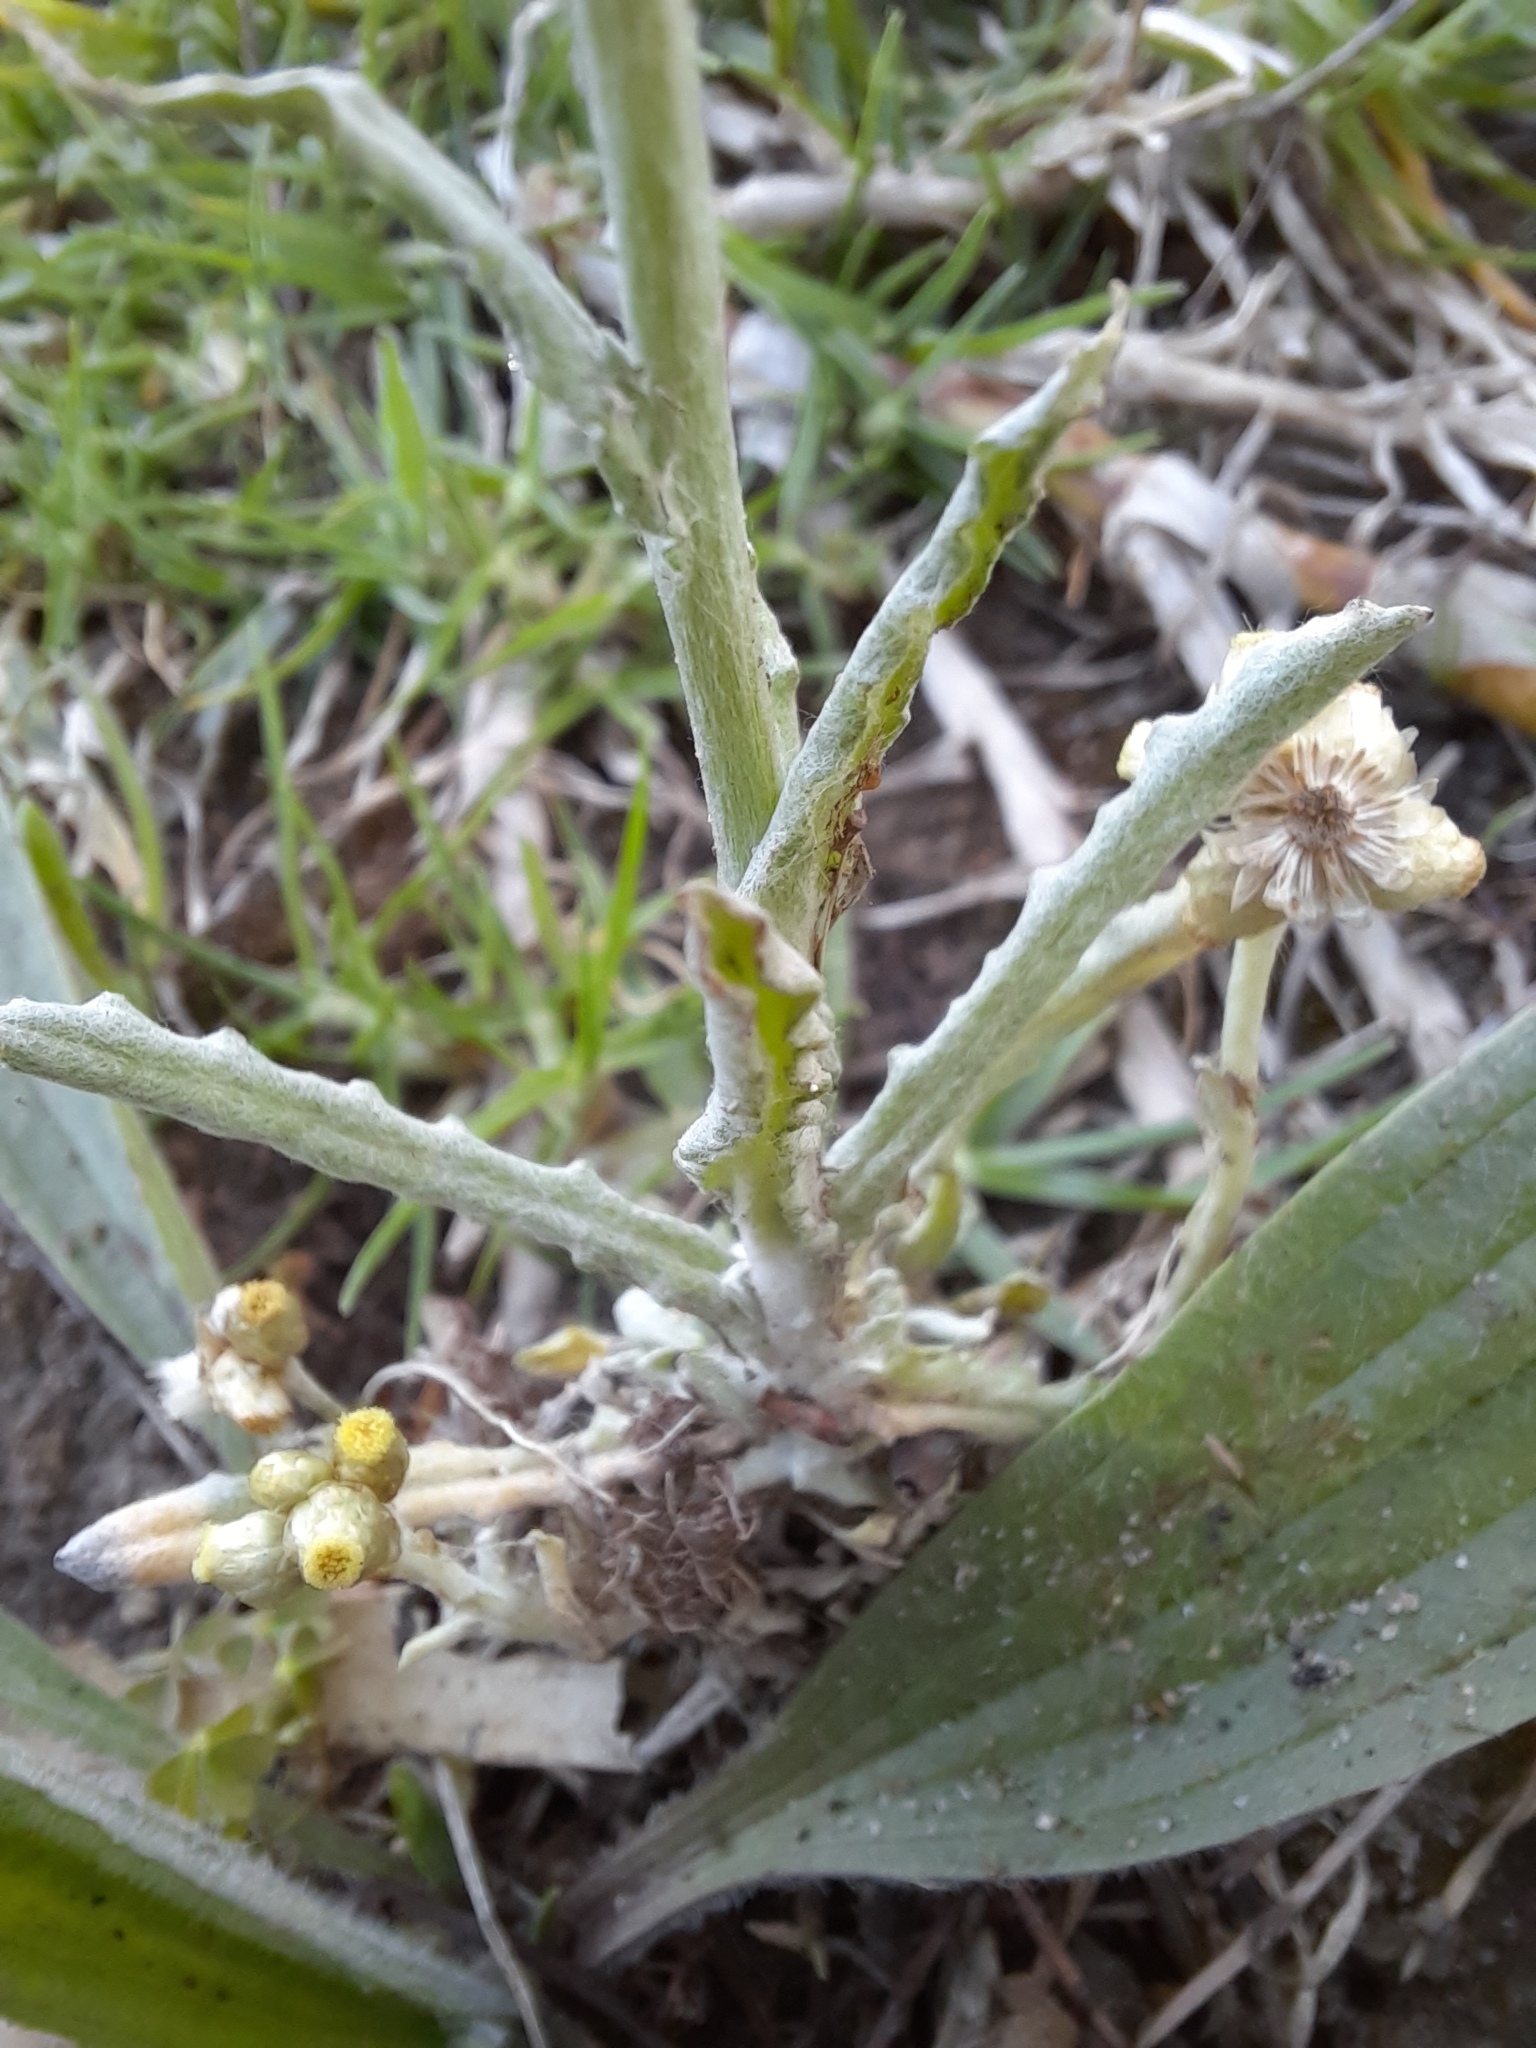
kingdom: Plantae
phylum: Tracheophyta
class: Magnoliopsida
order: Asterales
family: Asteraceae
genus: Helichrysum
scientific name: Helichrysum luteoalbum
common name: Daisy
